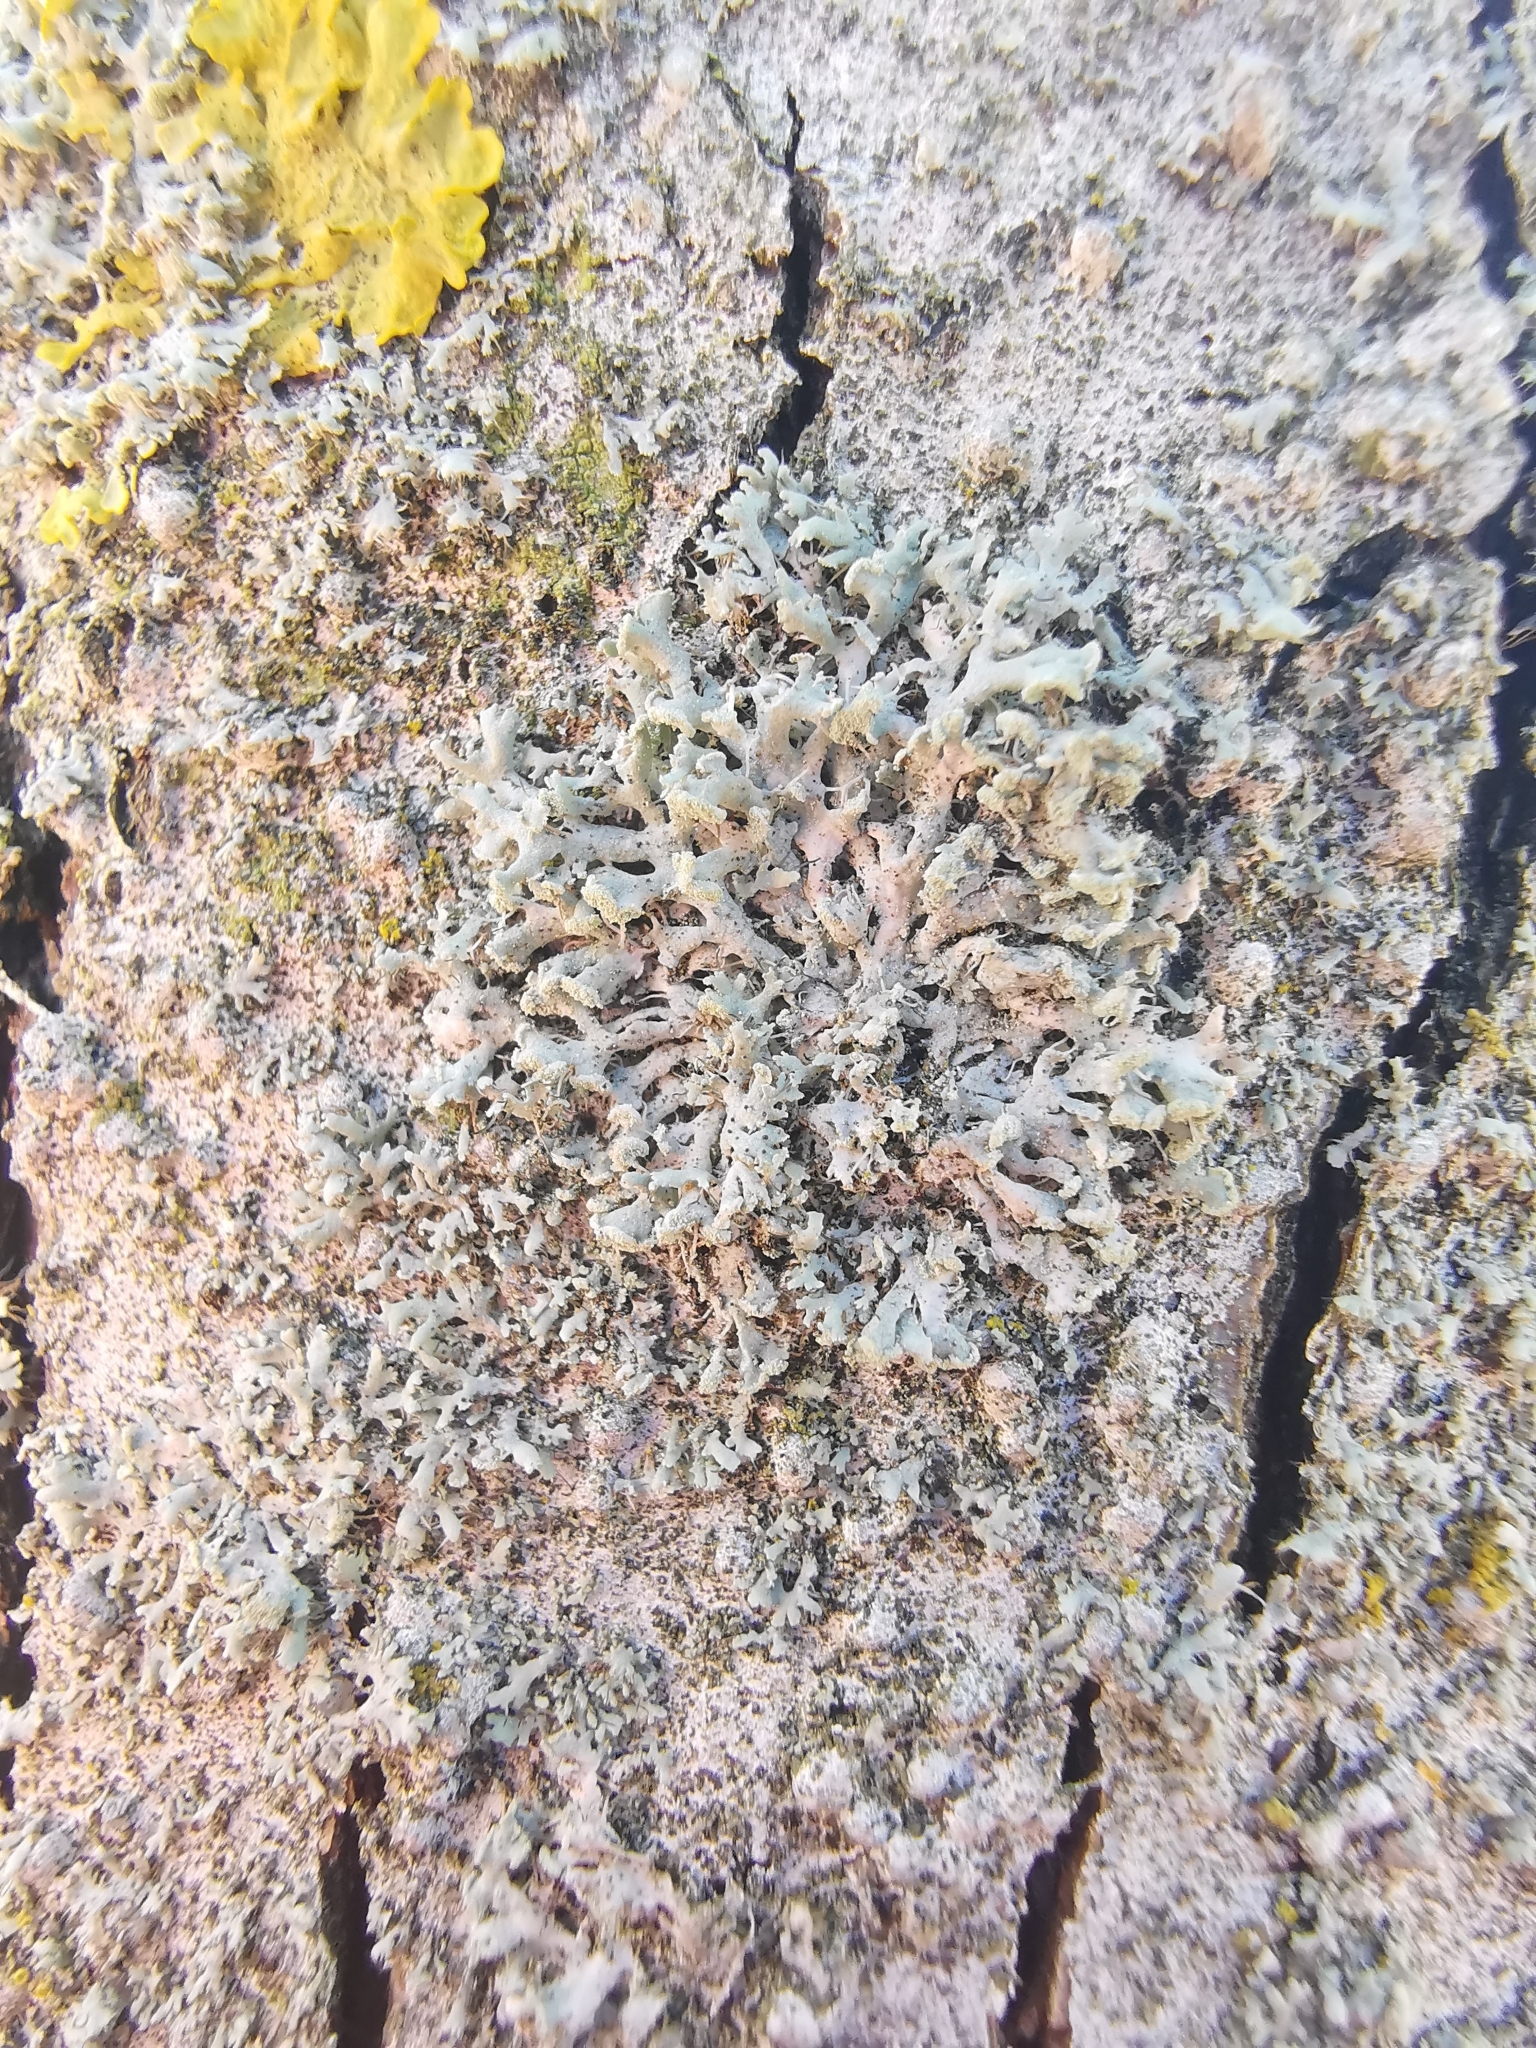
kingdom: Fungi
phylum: Ascomycota
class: Lecanoromycetes
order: Caliciales
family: Physciaceae
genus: Physcia
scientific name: Physcia tenella
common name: Fringed rosette lichen
